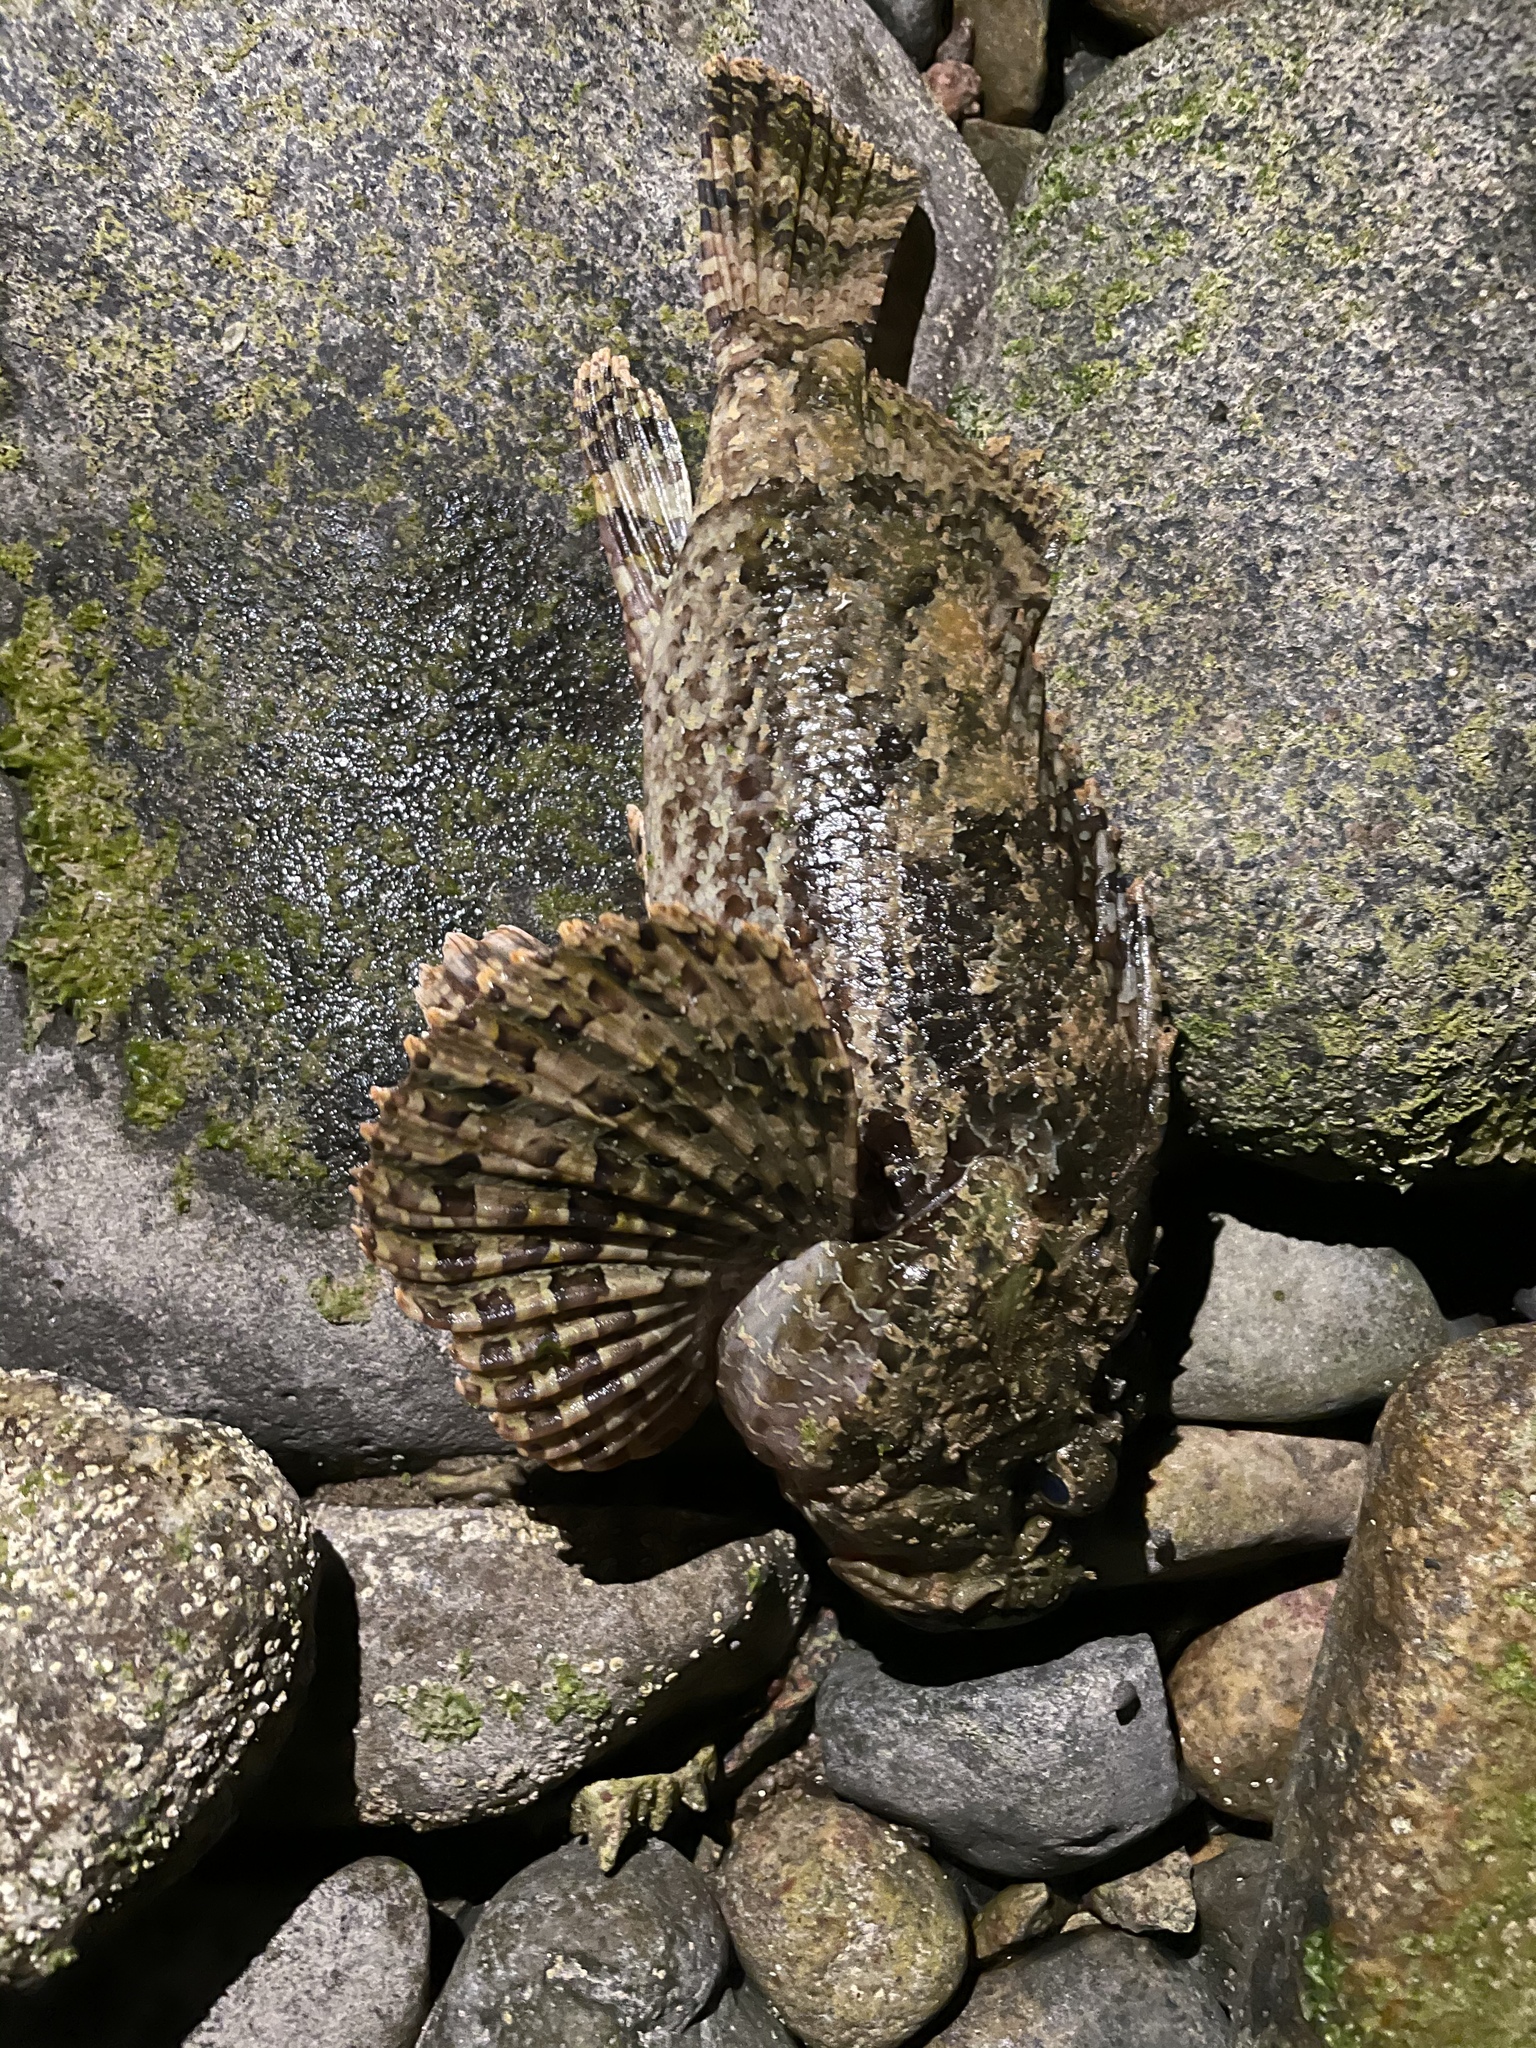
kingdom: Animalia
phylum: Chordata
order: Scorpaeniformes
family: Scorpaenidae
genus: Scorpaena
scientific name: Scorpaena mystes
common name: Pacific spotted scorpionfish
